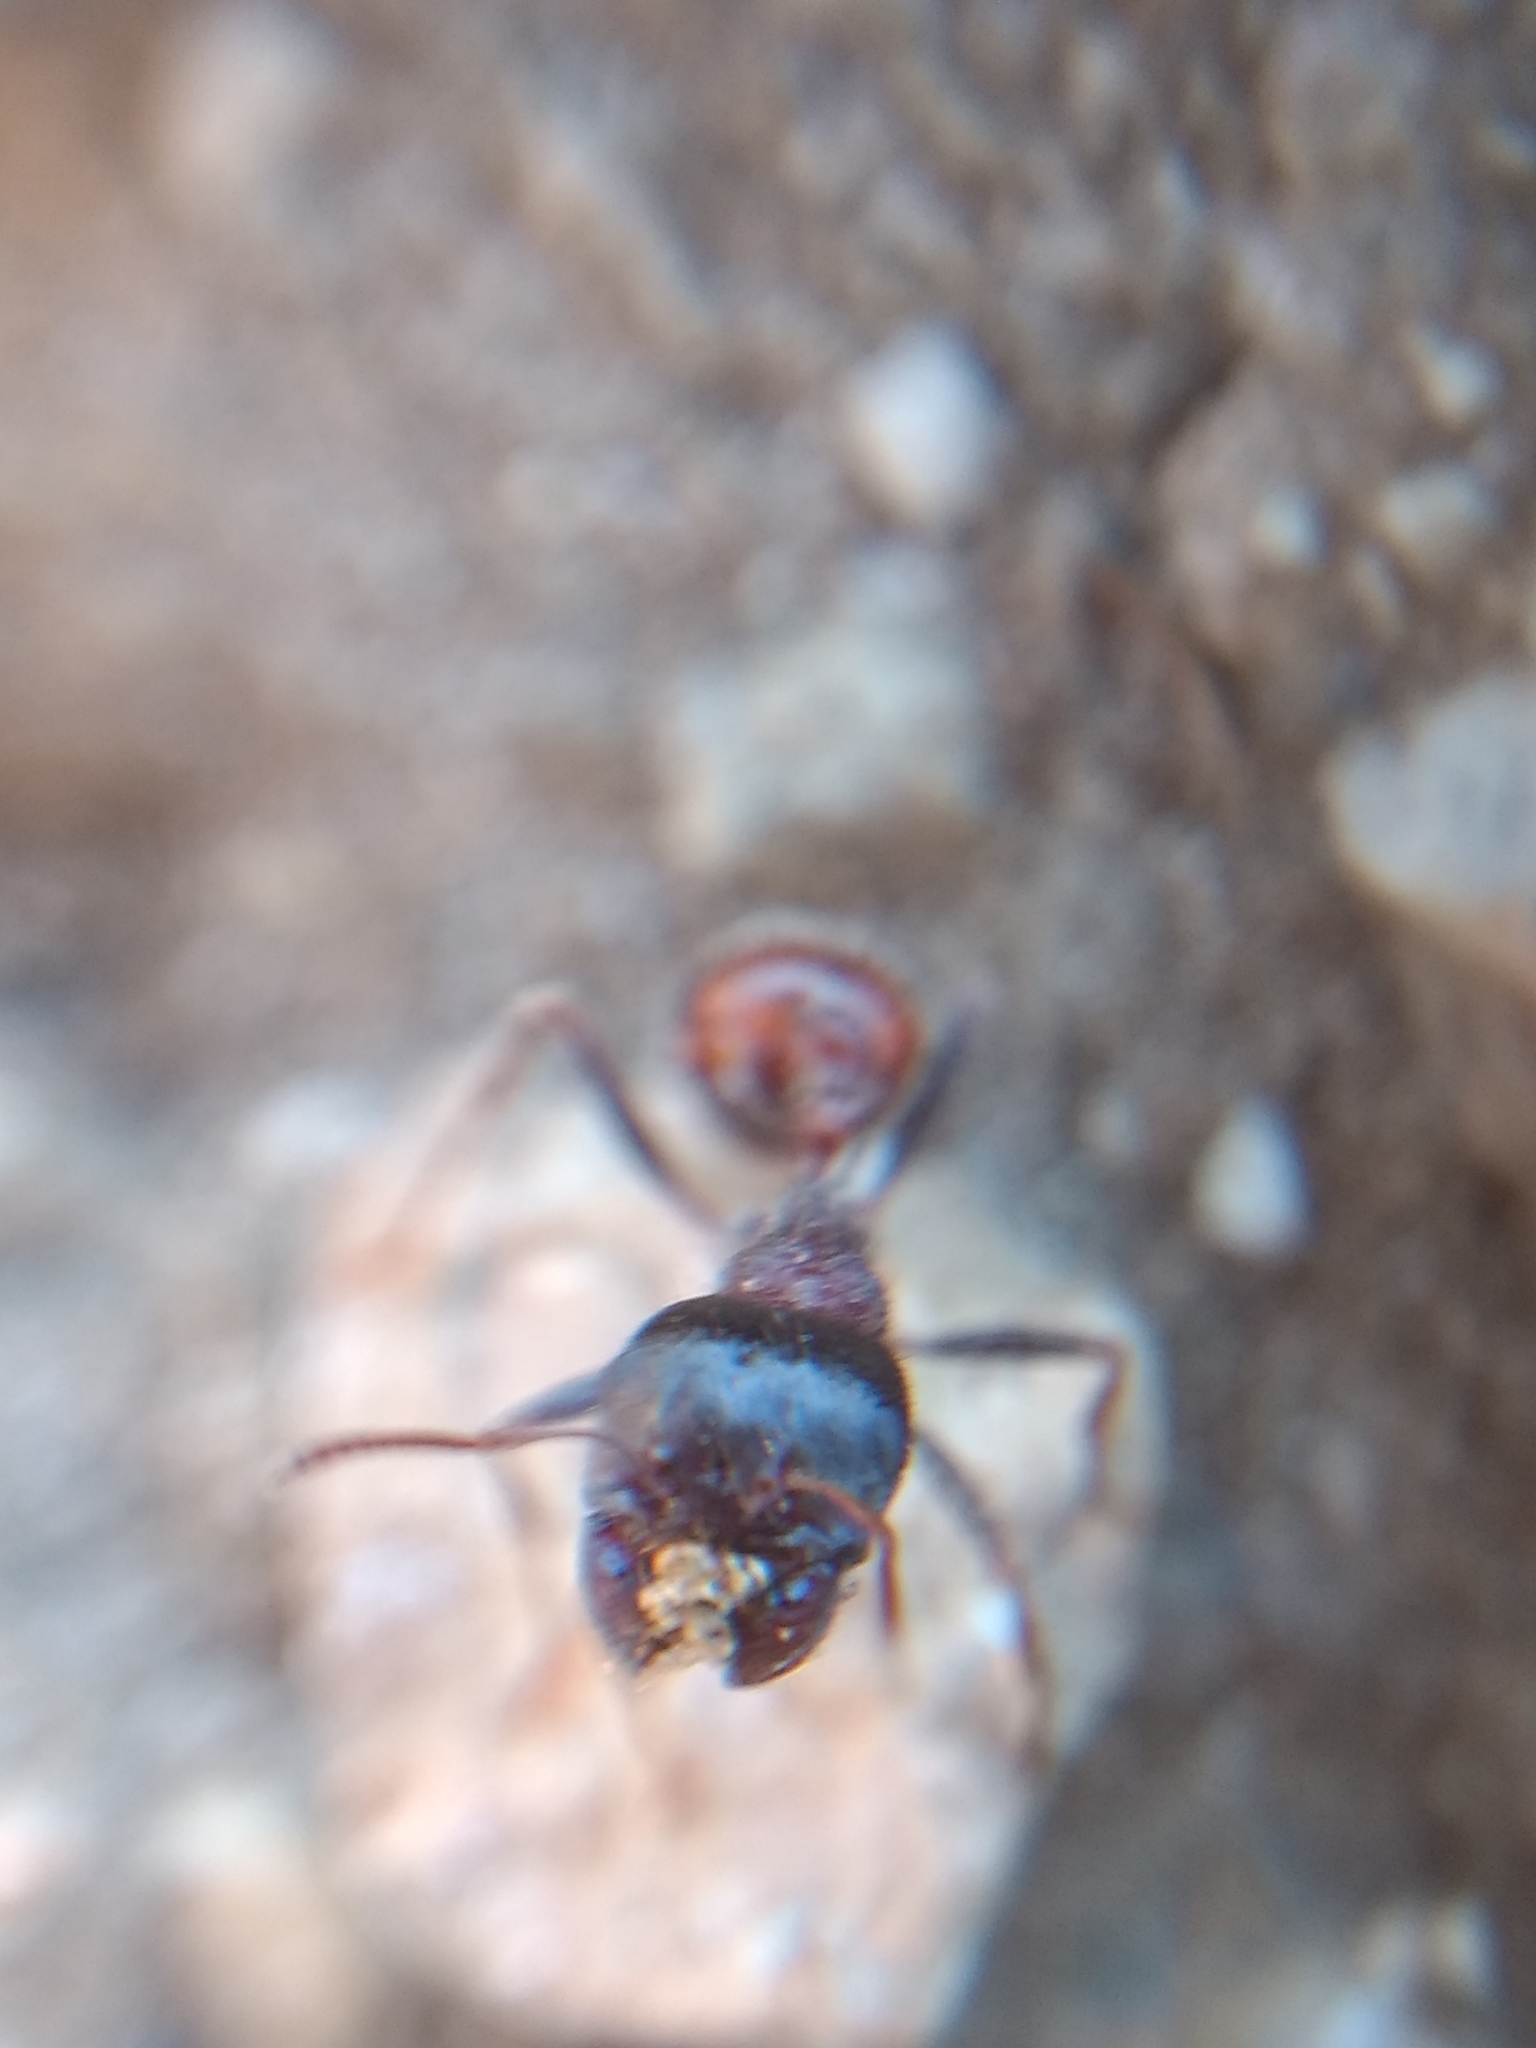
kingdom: Animalia
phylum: Arthropoda
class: Insecta
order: Hymenoptera
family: Formicidae
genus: Pogonomyrmex
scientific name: Pogonomyrmex rugosus
